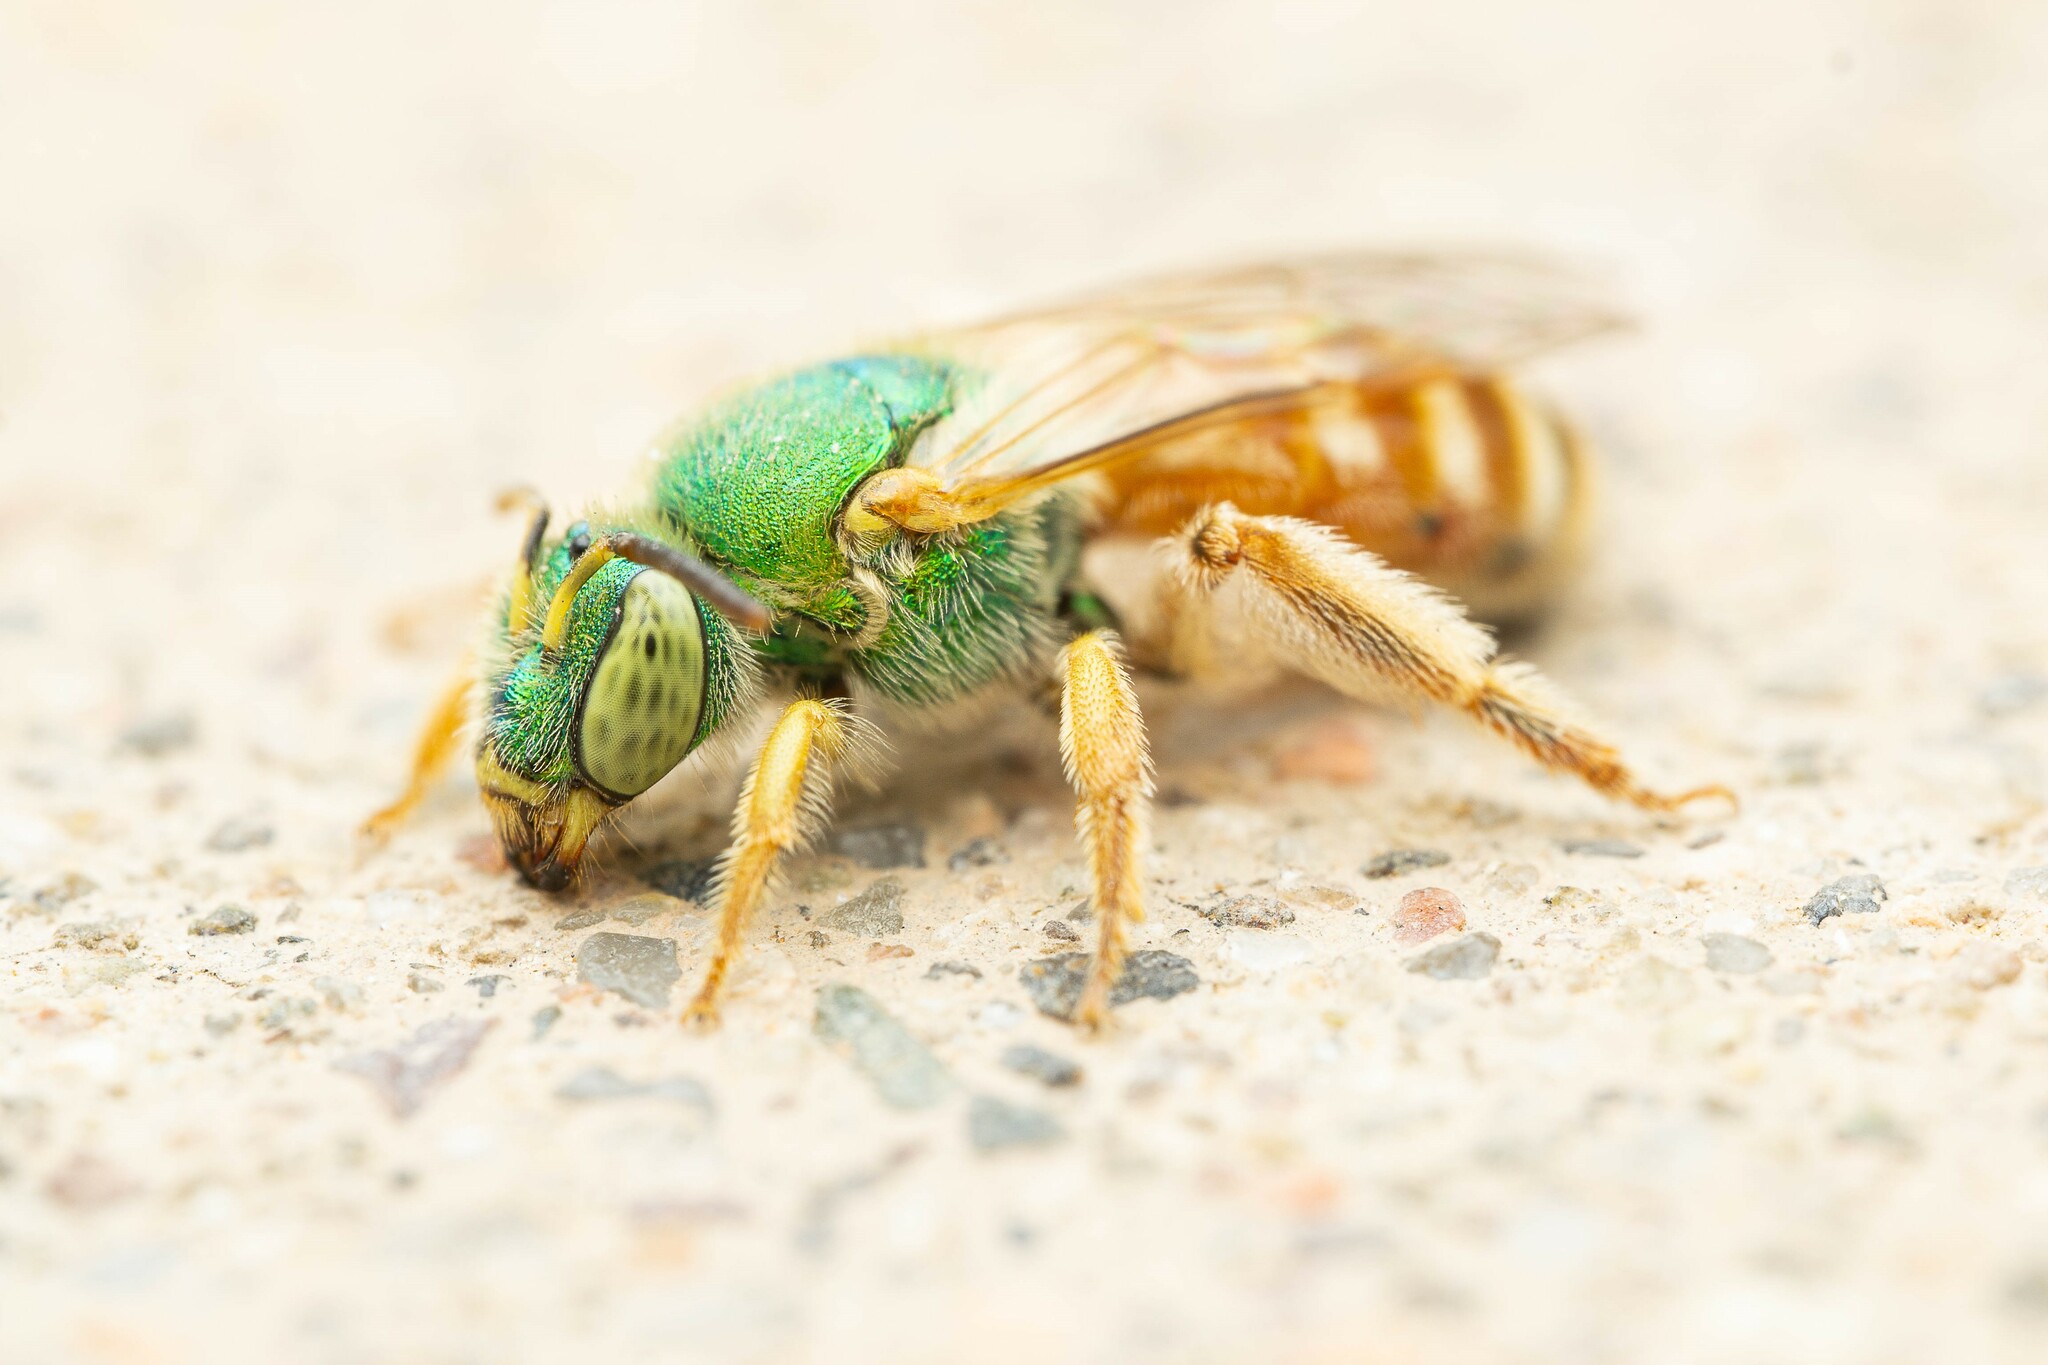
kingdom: Animalia
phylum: Arthropoda
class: Insecta
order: Hymenoptera
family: Halictidae
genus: Agapostemon
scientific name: Agapostemon melliventris
